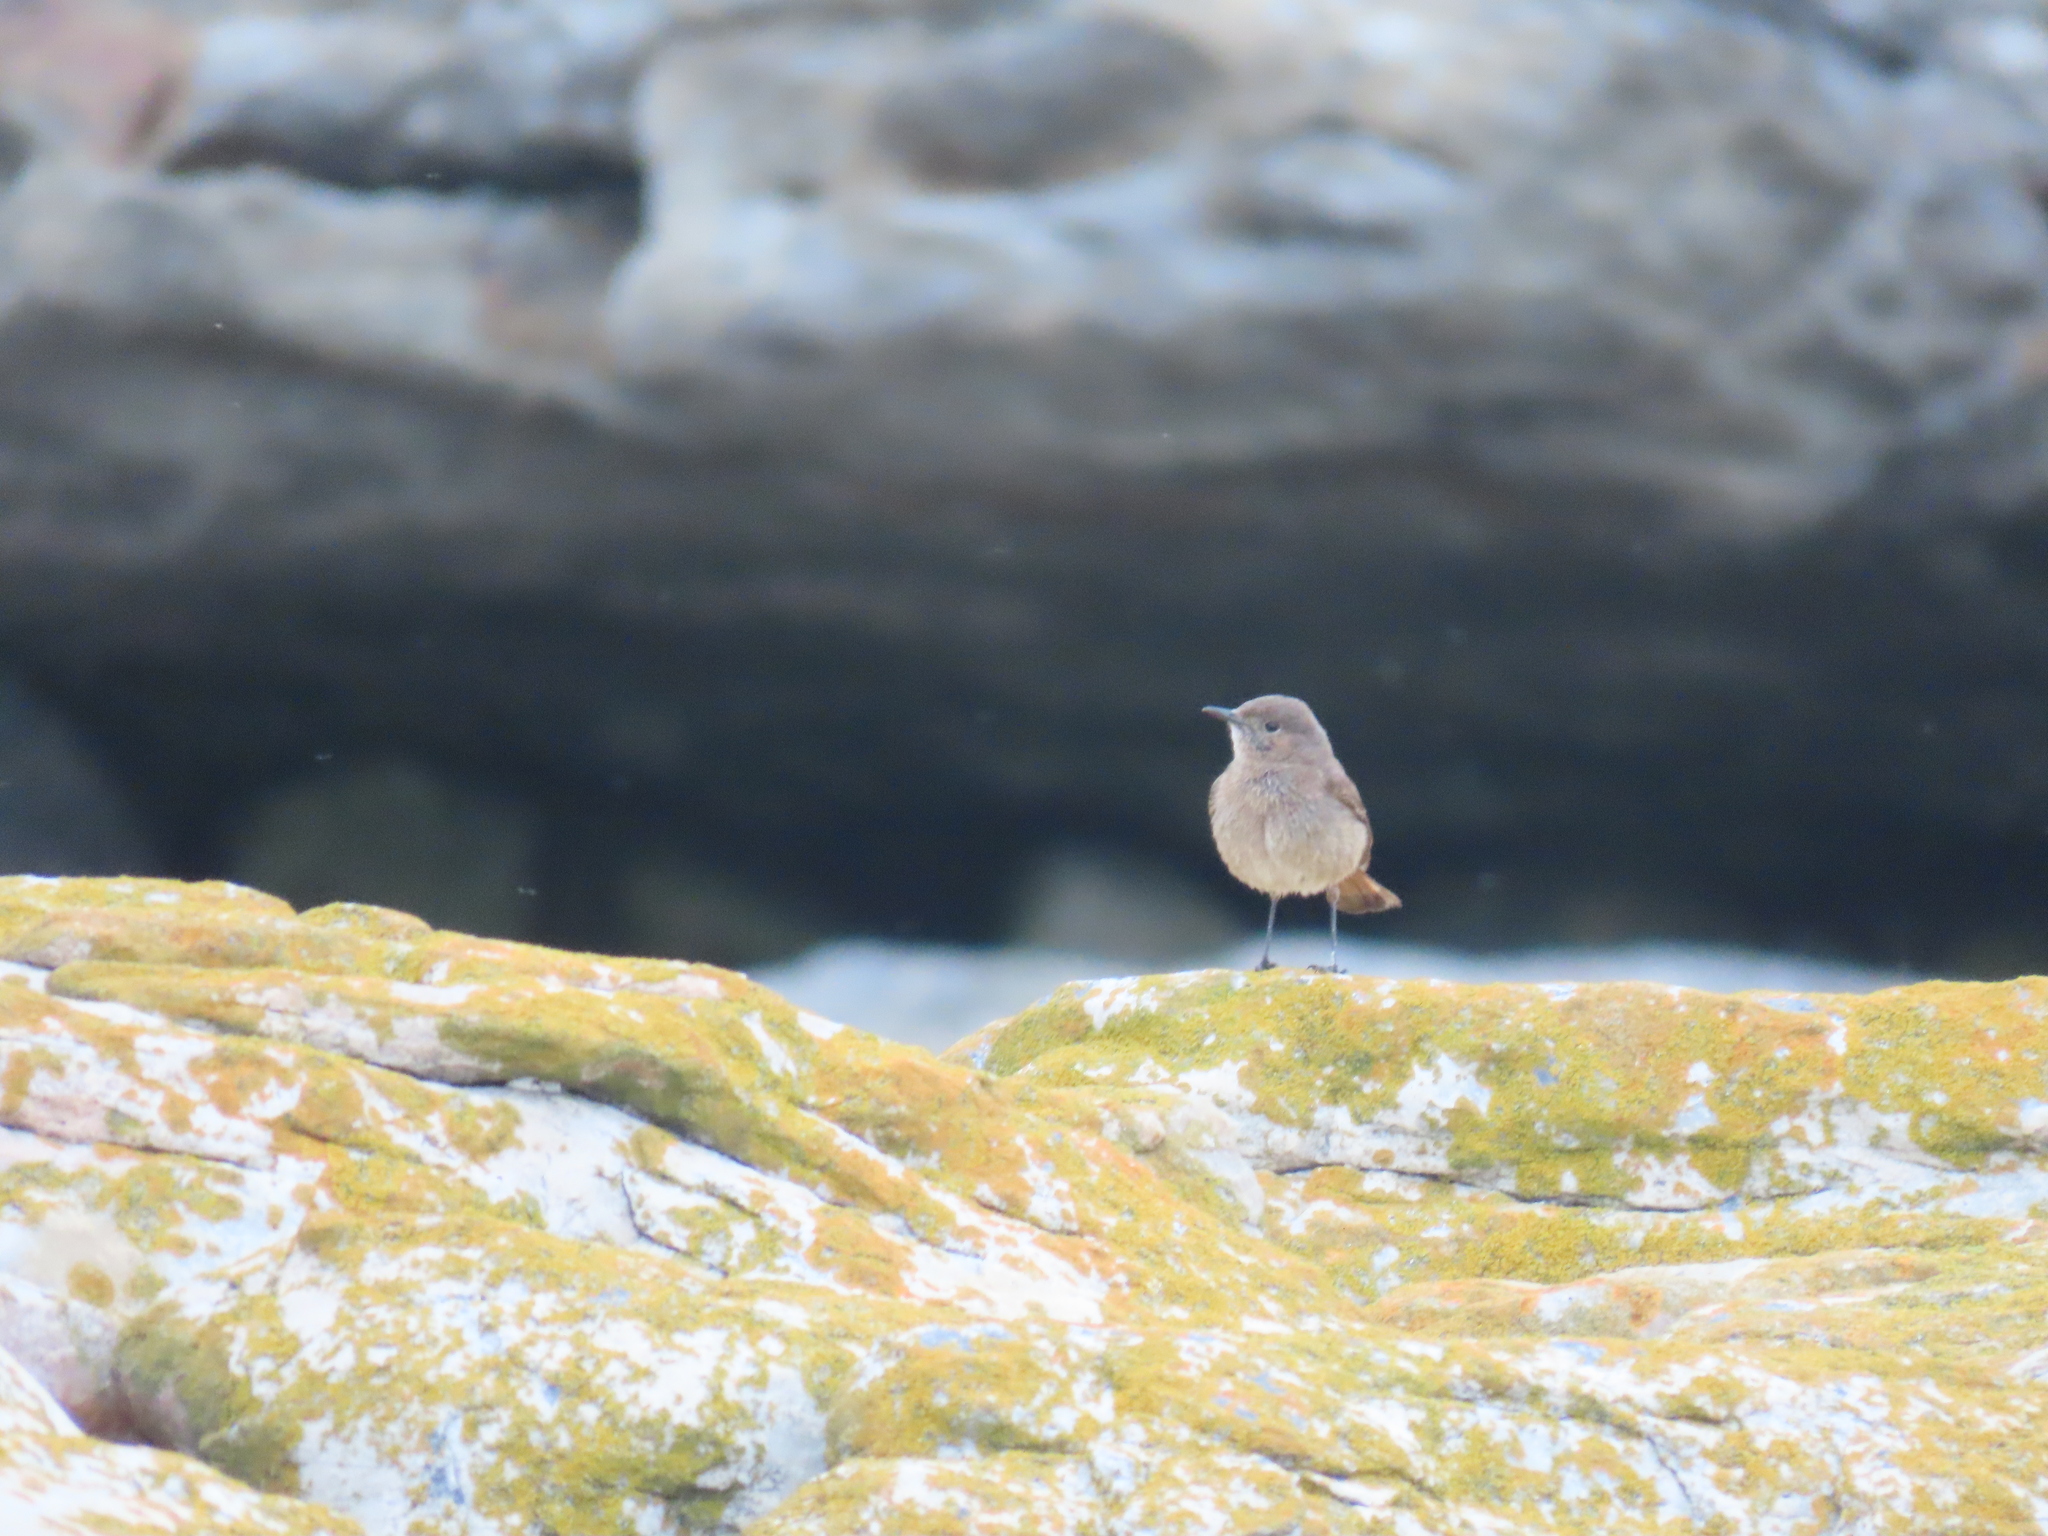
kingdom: Animalia
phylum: Chordata
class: Aves
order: Passeriformes
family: Muscicapidae
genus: Oenanthe
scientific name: Oenanthe familiaris
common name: Familiar chat
